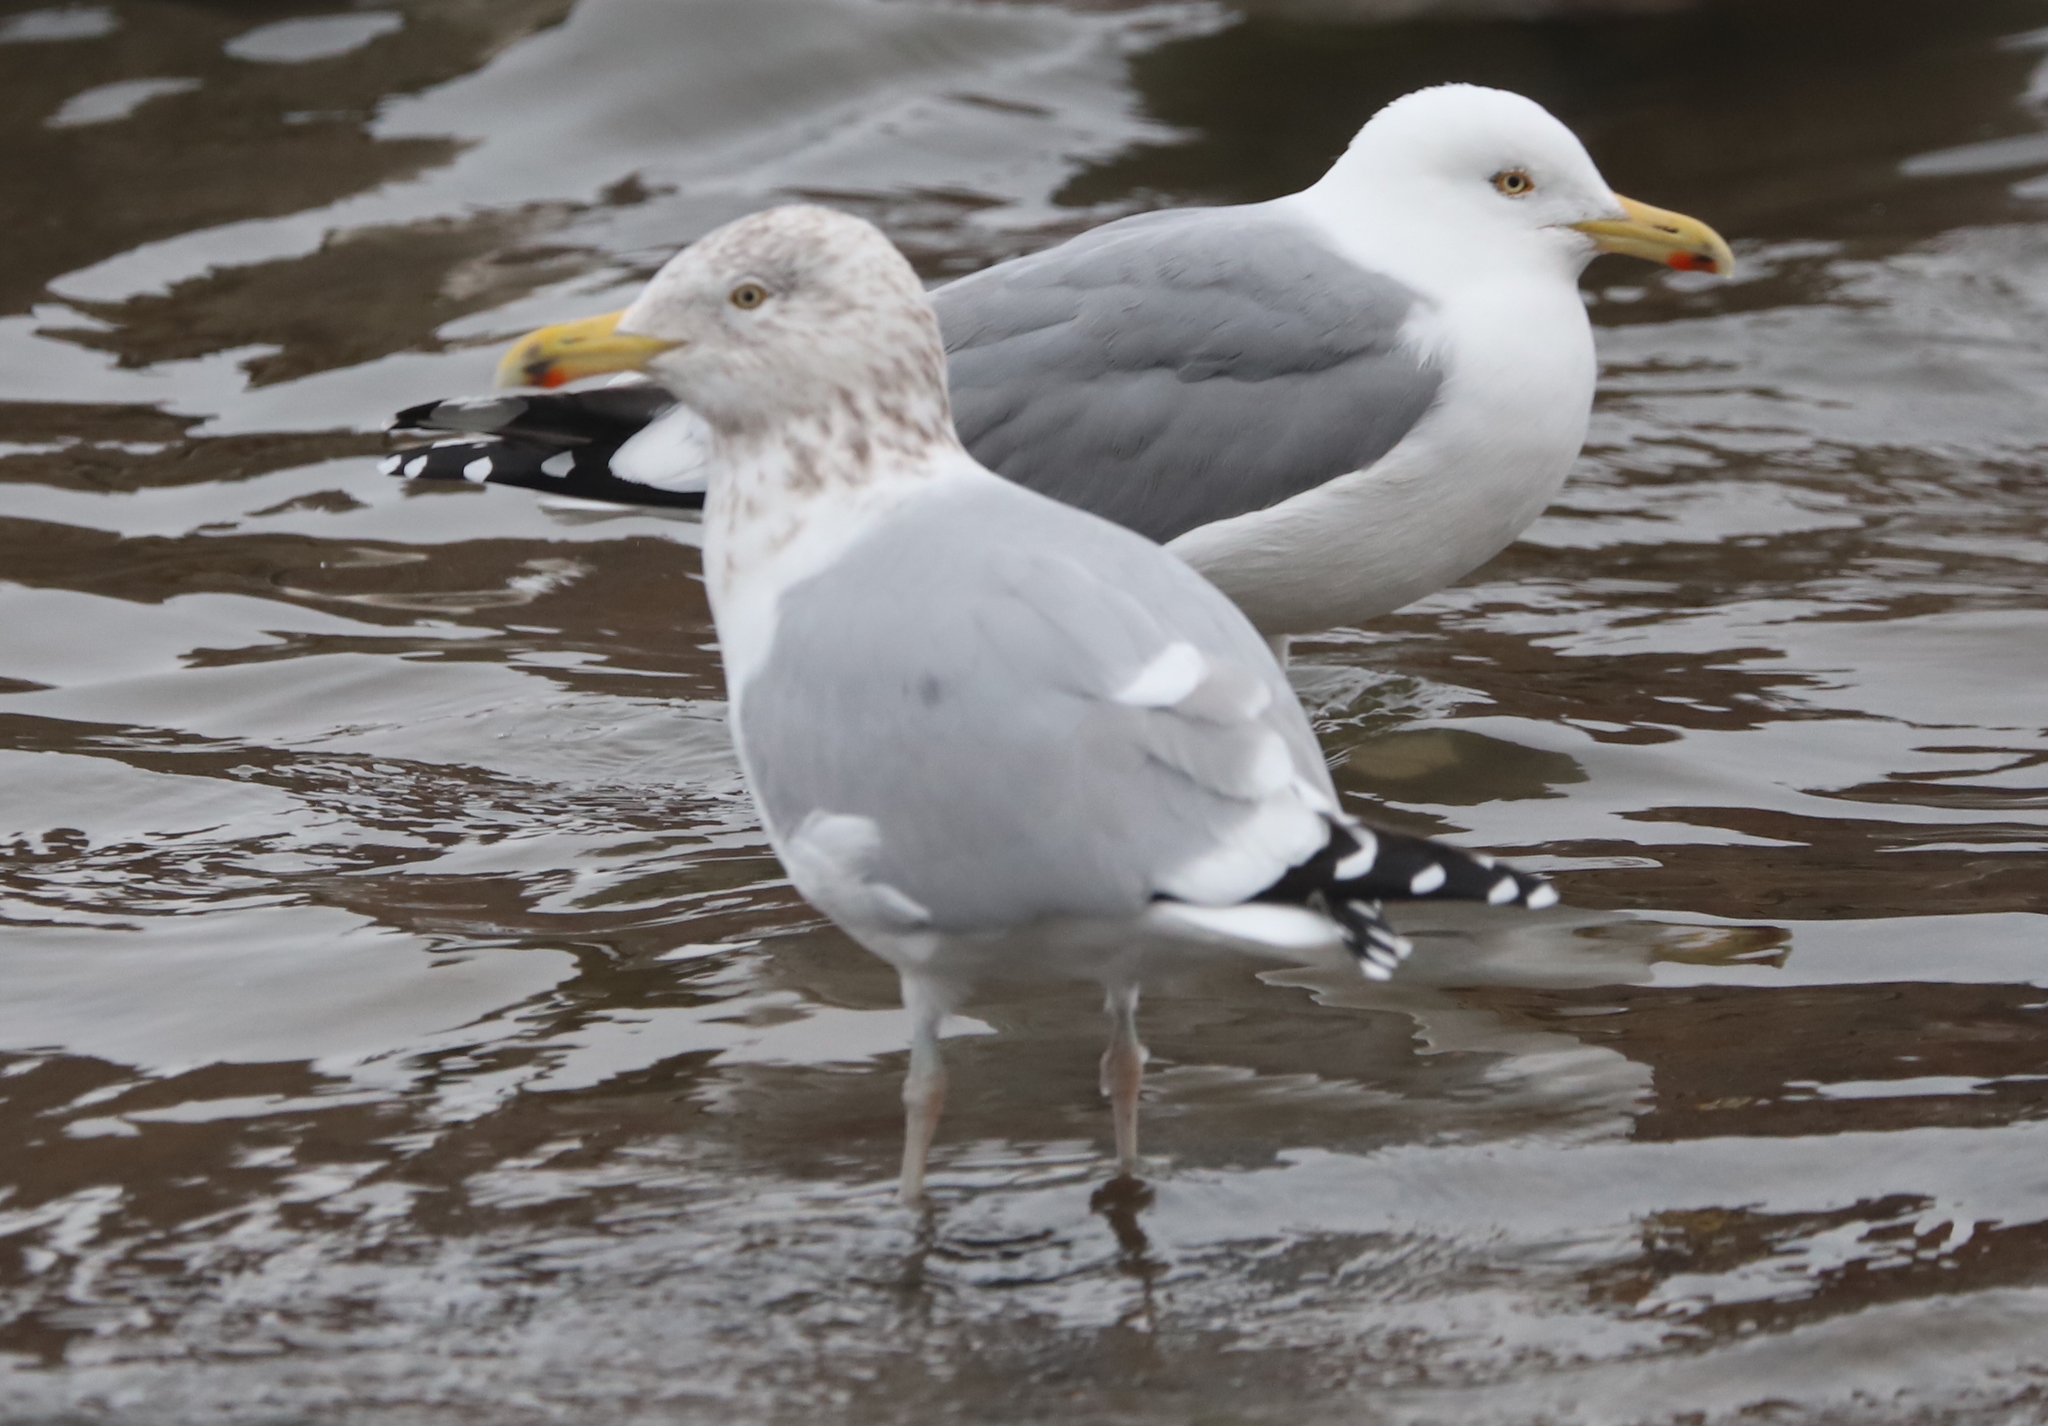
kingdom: Animalia
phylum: Chordata
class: Aves
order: Charadriiformes
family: Laridae
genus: Larus
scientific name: Larus argentatus
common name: Herring gull
